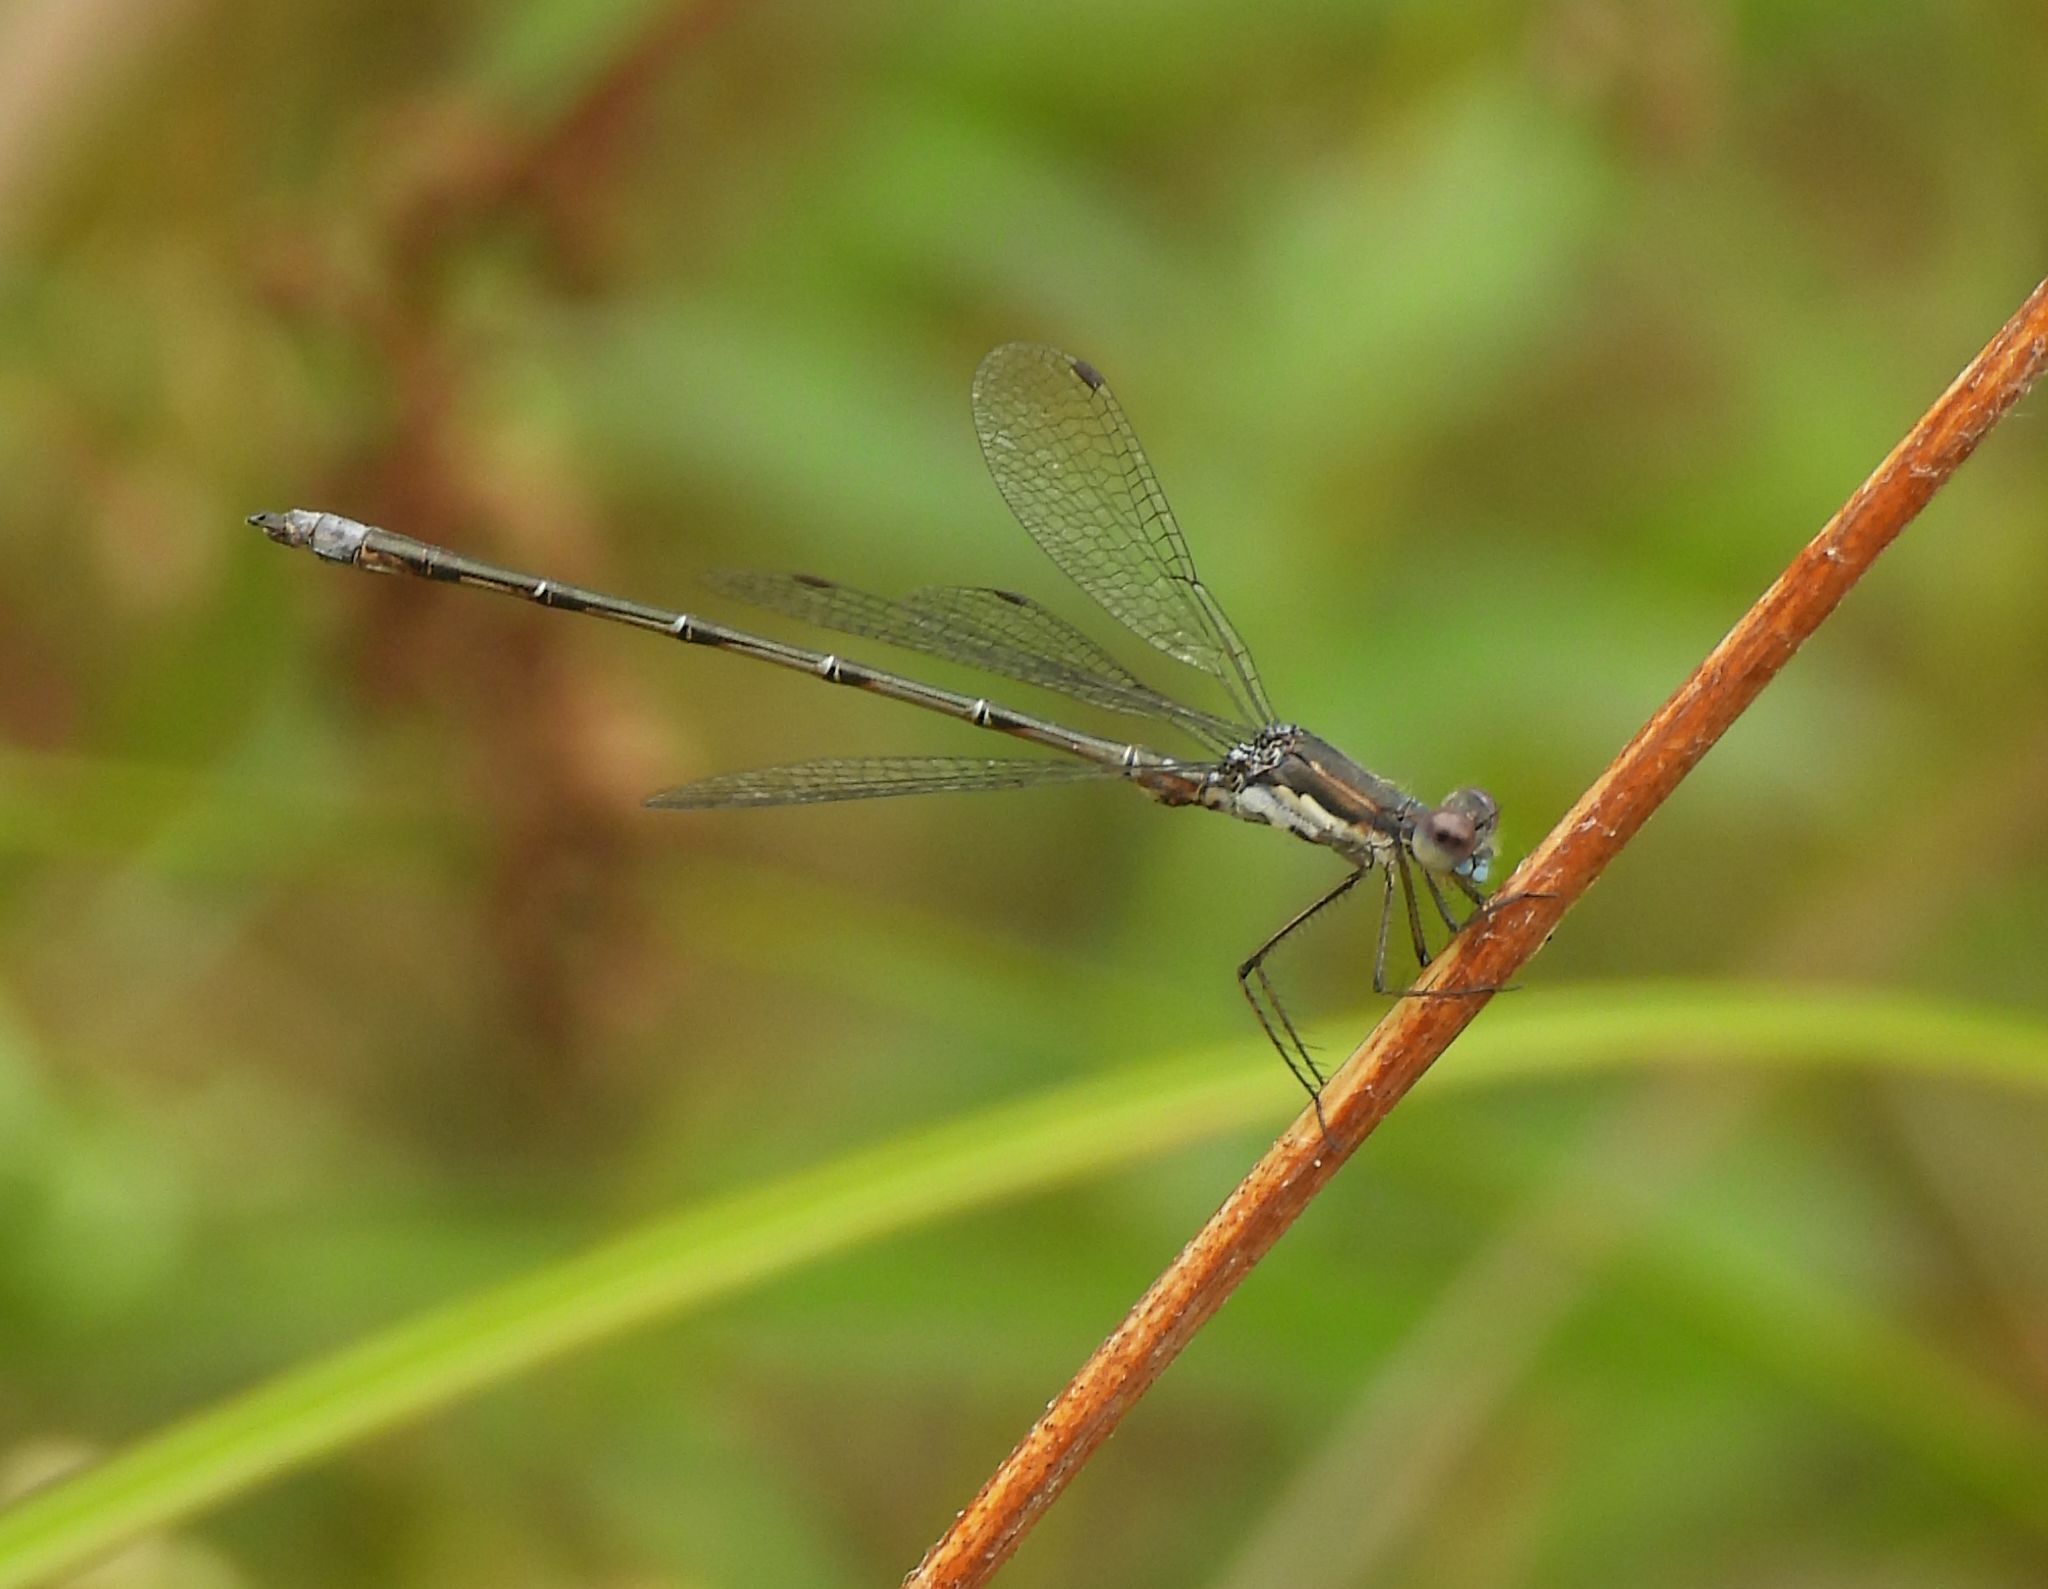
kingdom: Animalia
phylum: Arthropoda
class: Insecta
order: Odonata
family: Lestidae
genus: Lestes
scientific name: Lestes congener
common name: Spotted spreadwing
